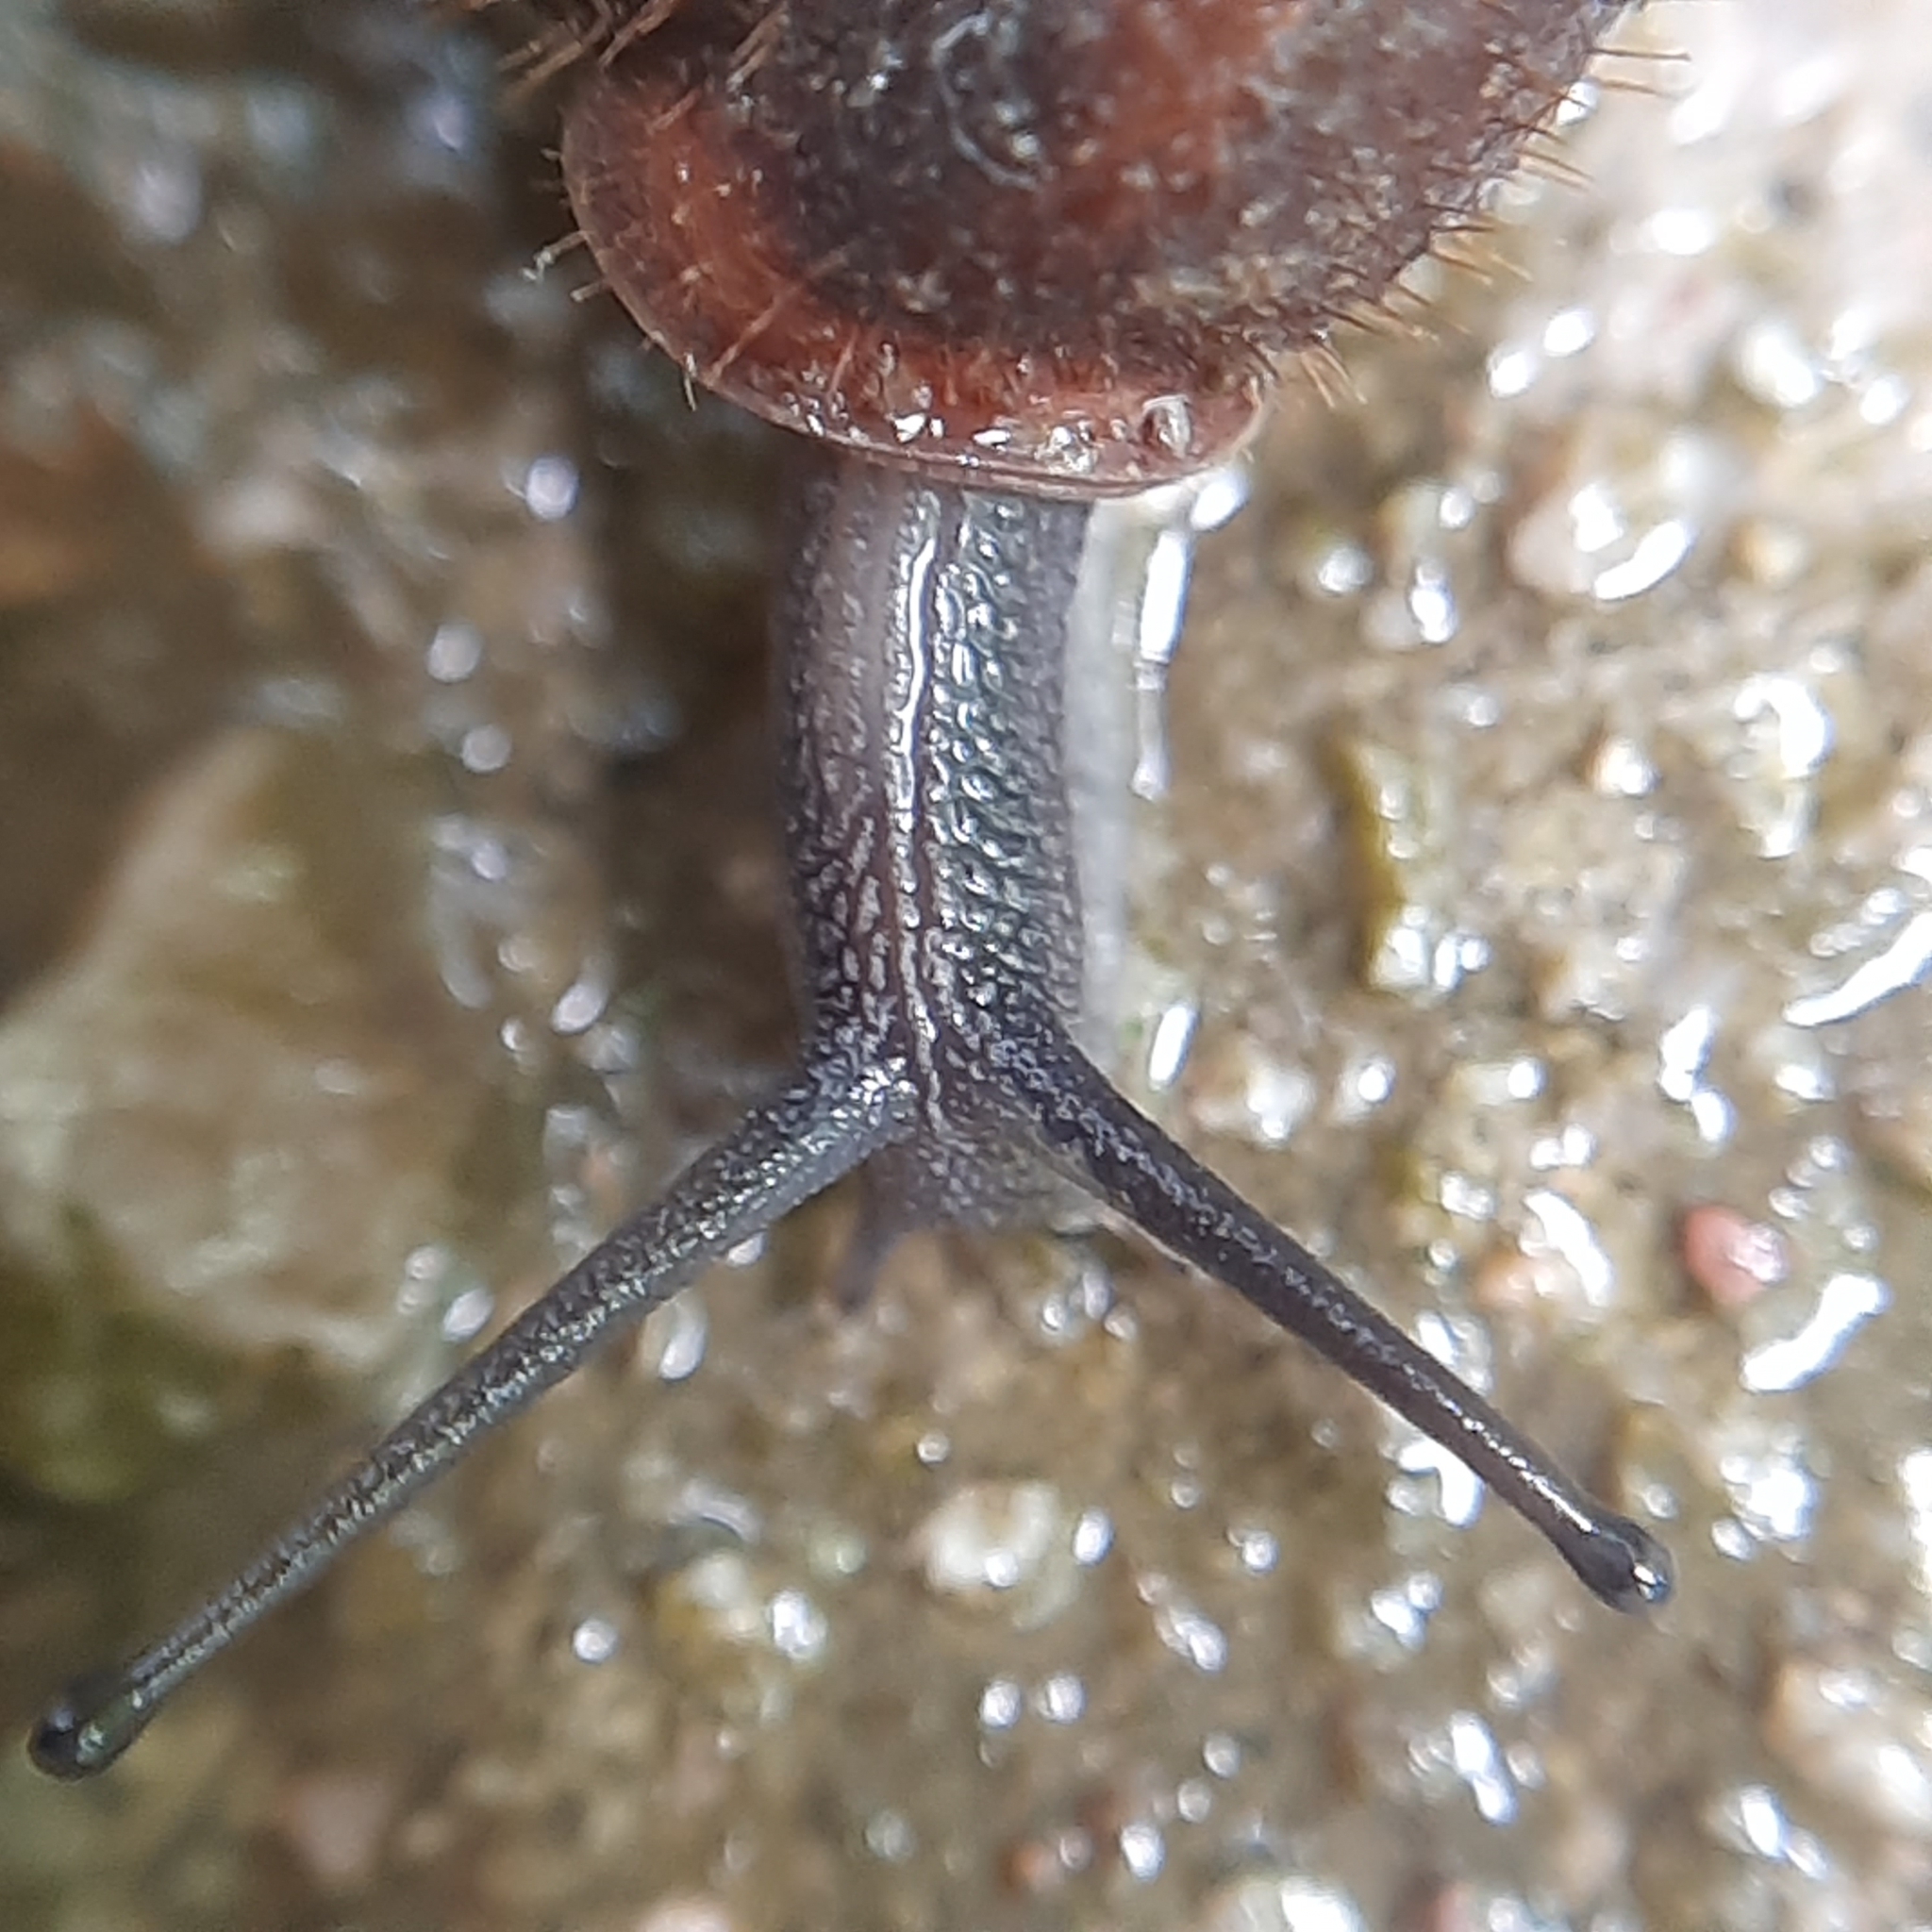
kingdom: Animalia
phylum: Mollusca
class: Gastropoda
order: Stylommatophora
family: Helicodontidae
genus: Helicodonta
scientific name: Helicodonta obvoluta
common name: Cheese snail
